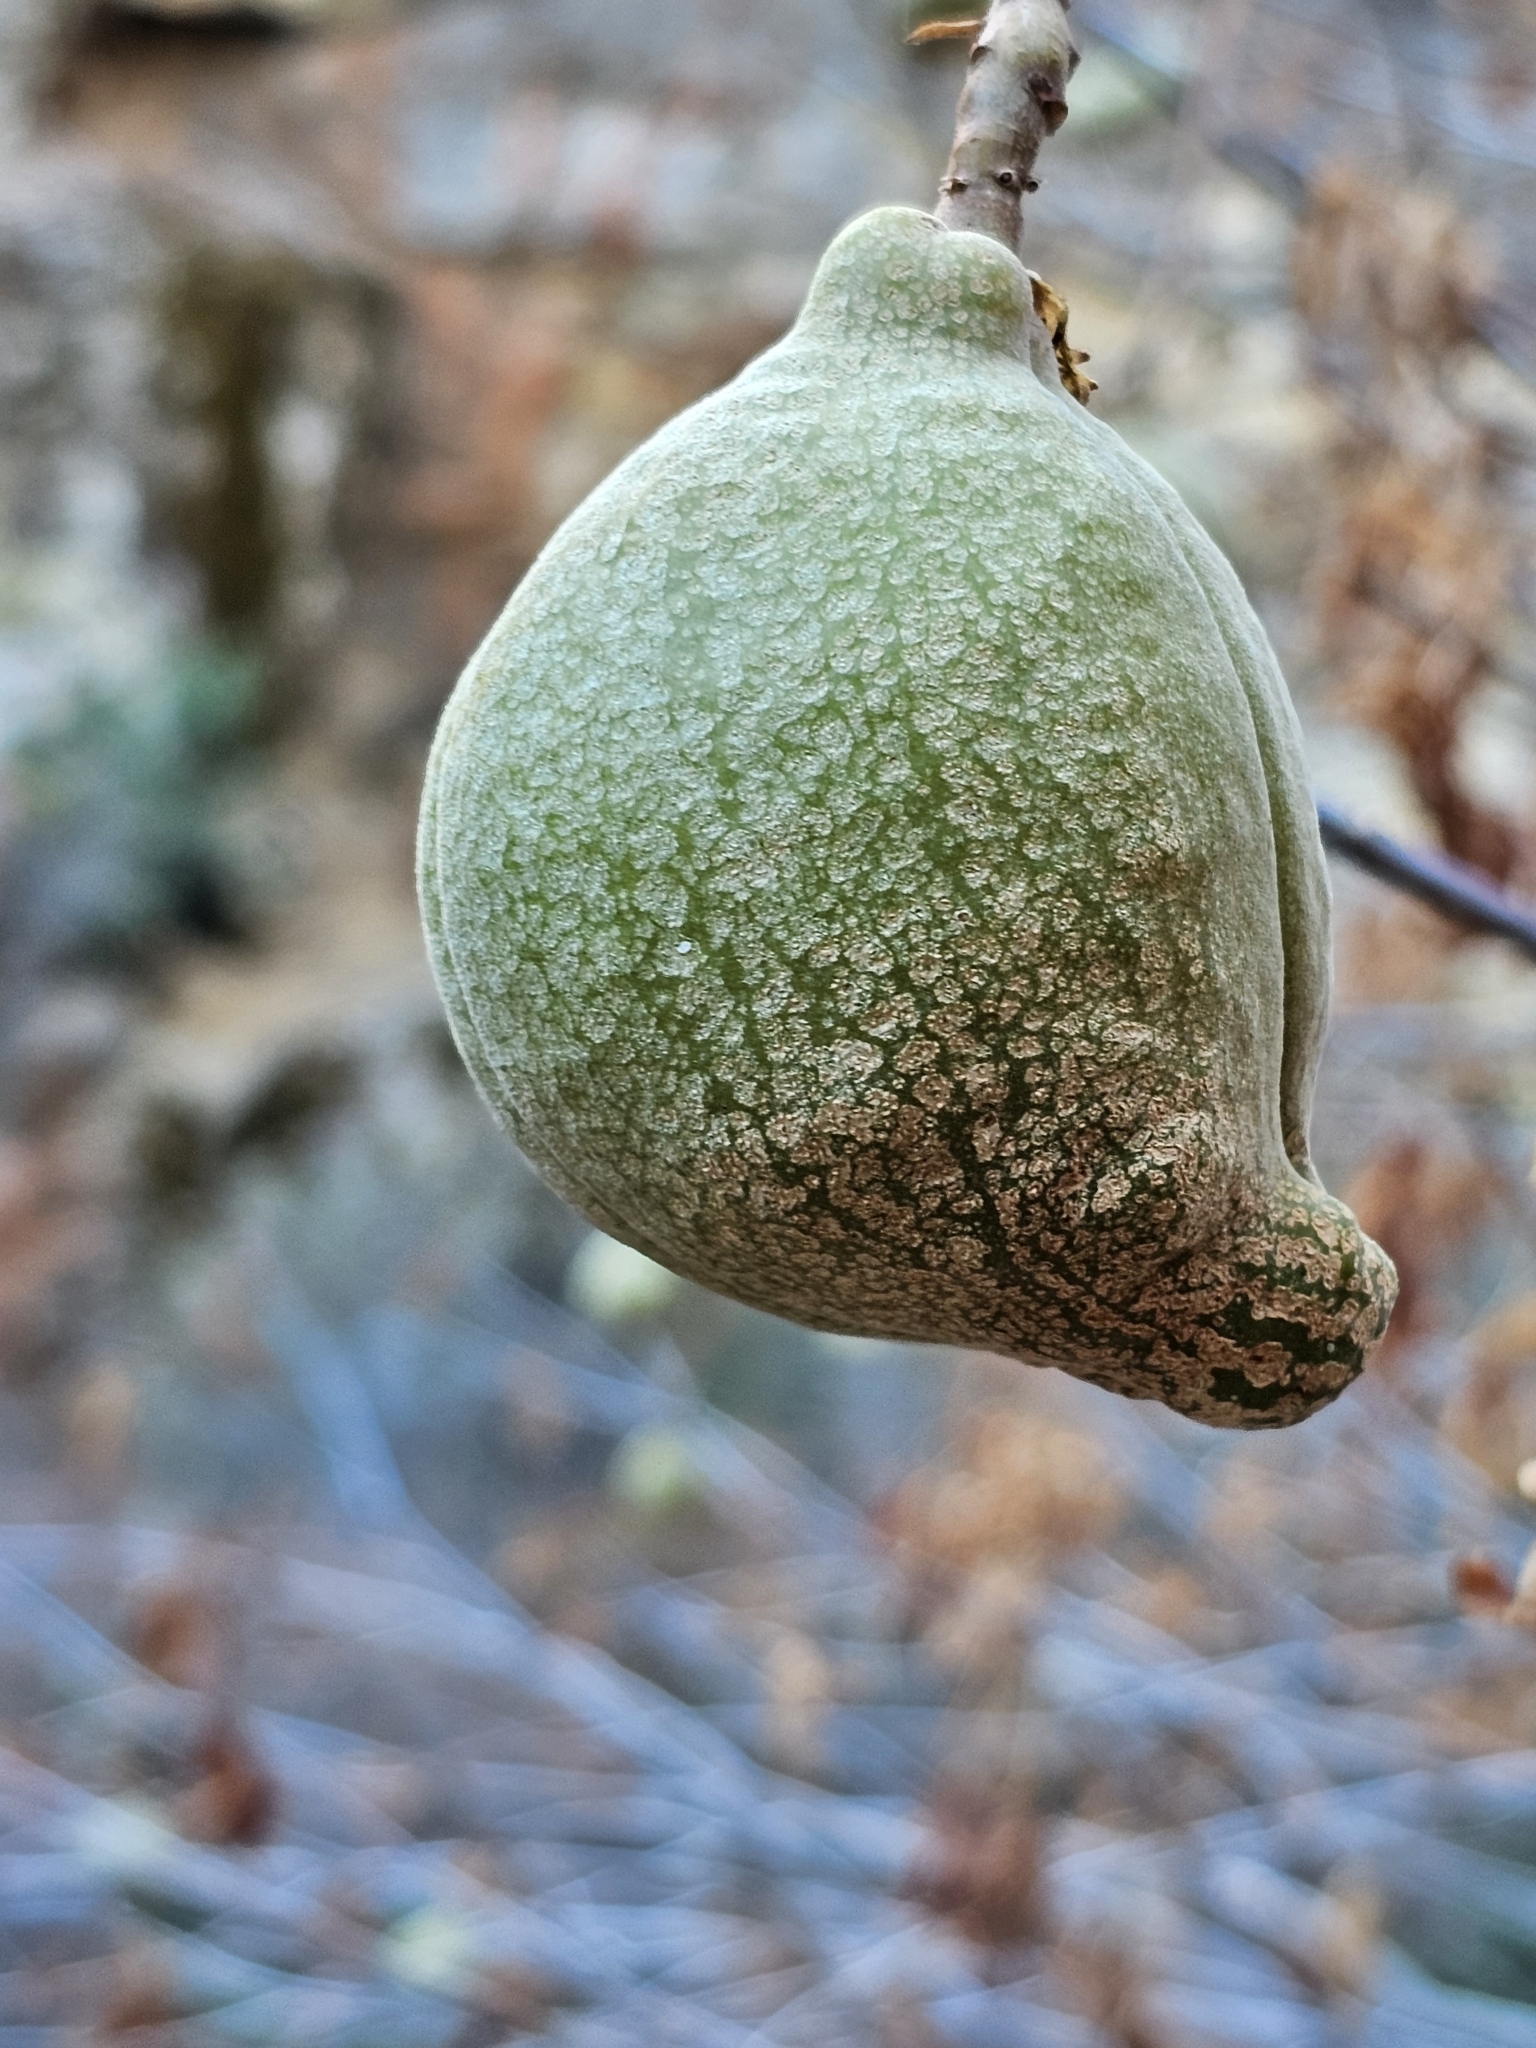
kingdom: Plantae
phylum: Tracheophyta
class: Magnoliopsida
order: Sapindales
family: Sapindaceae
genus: Aesculus
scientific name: Aesculus californica
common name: California buckeye
